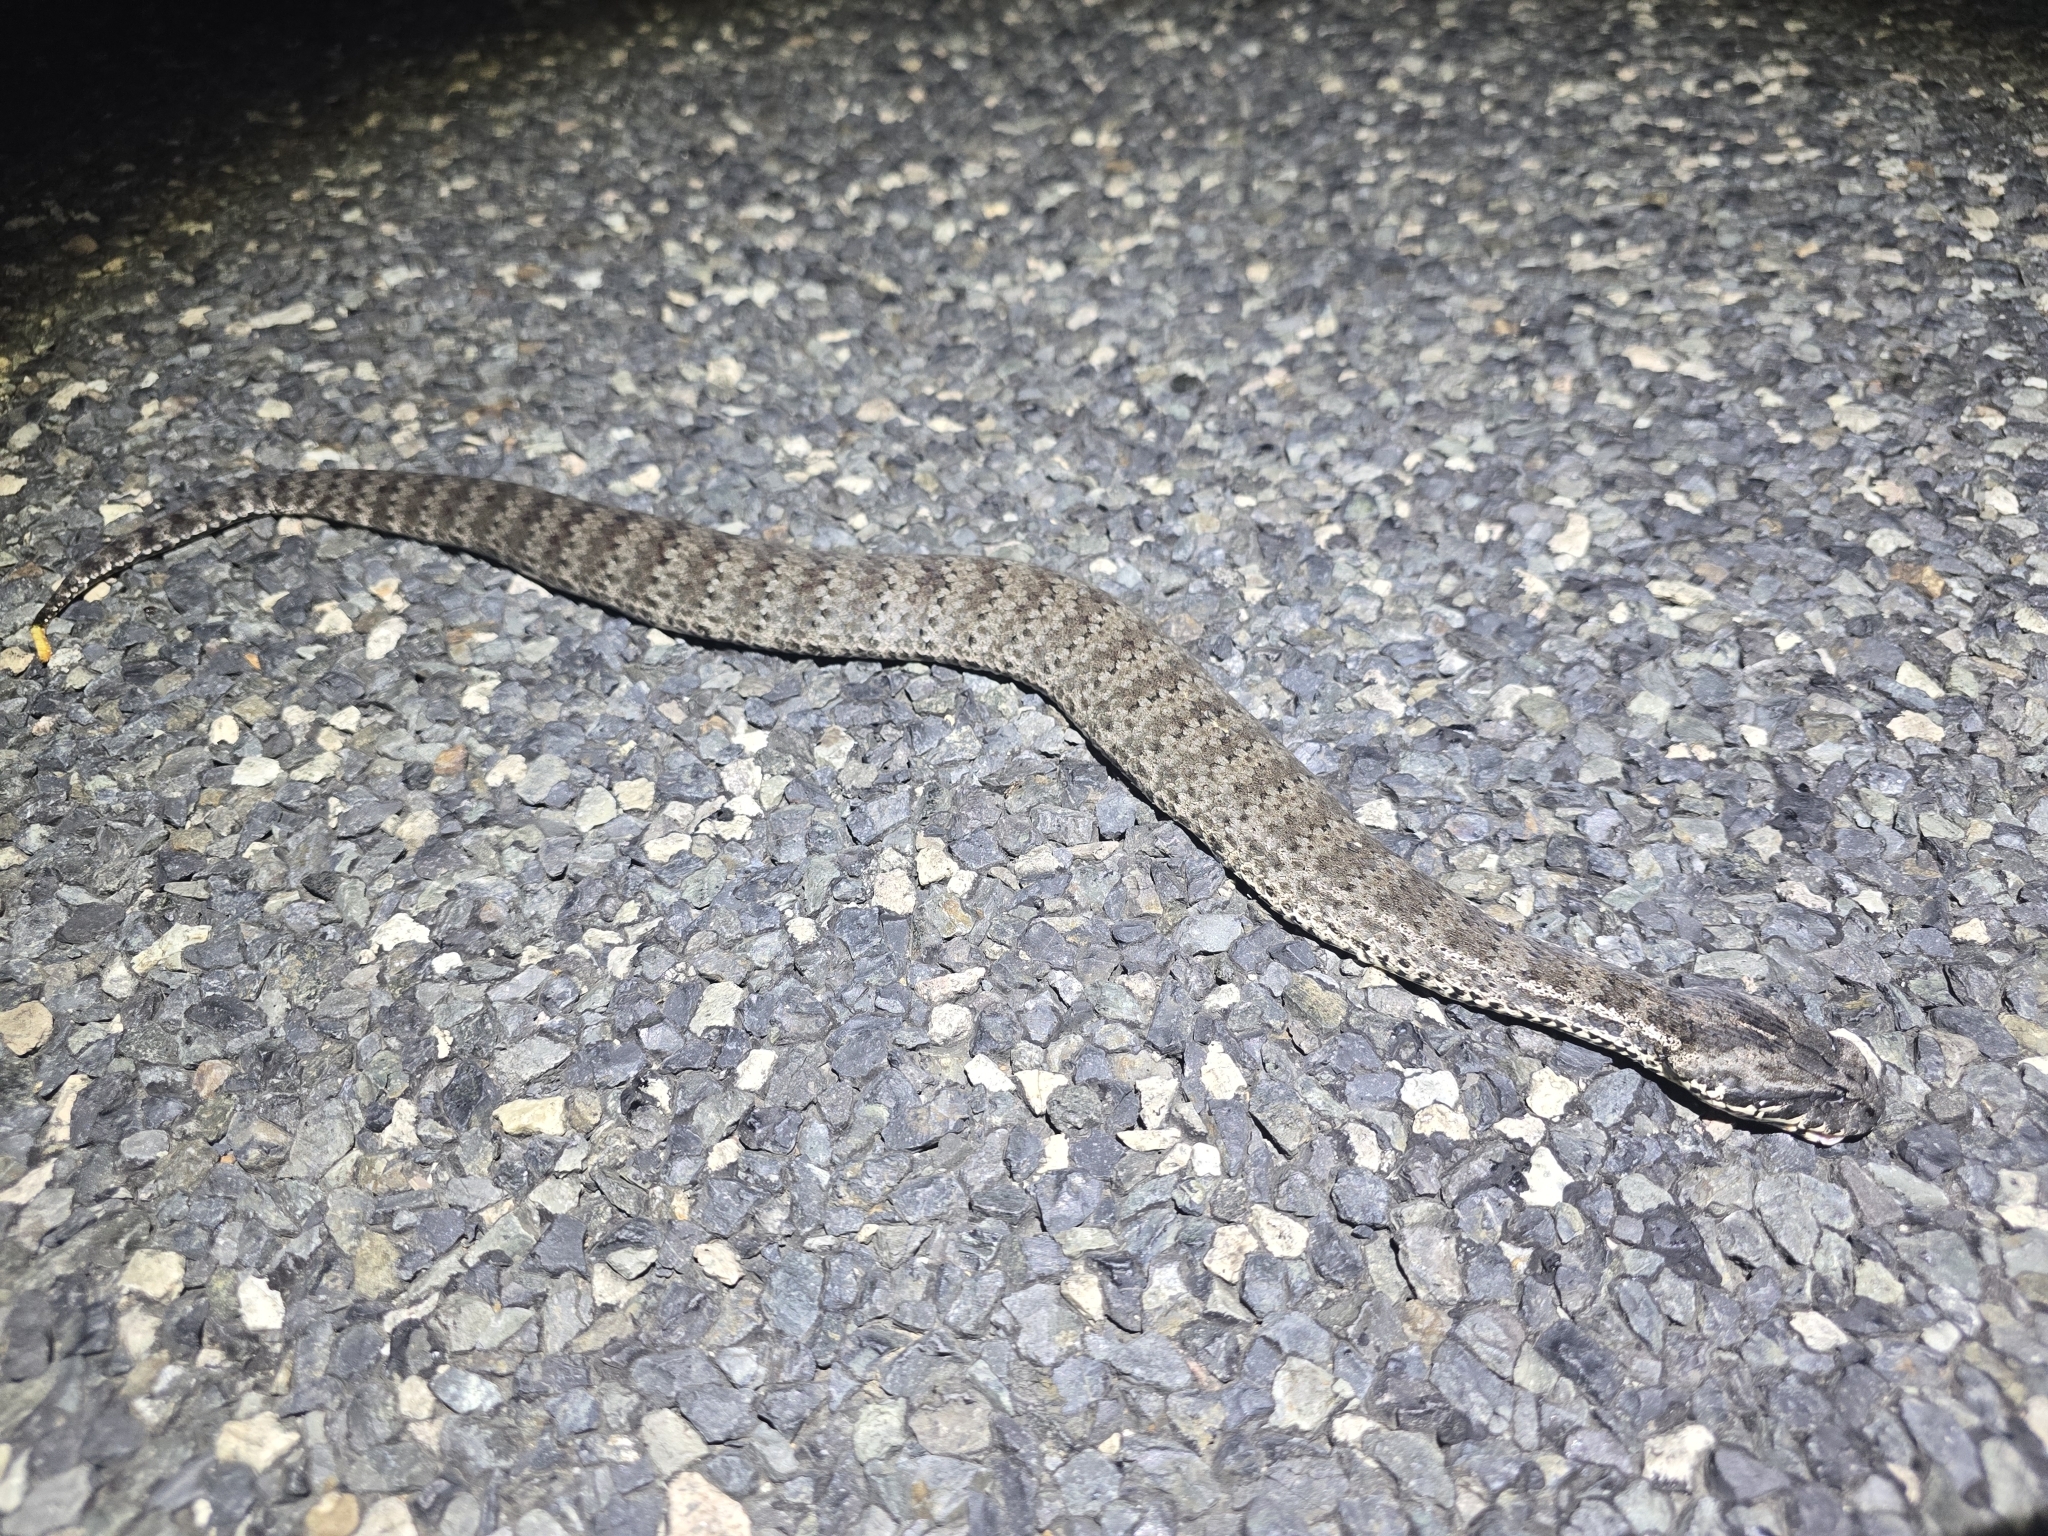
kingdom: Animalia
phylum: Chordata
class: Squamata
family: Elapidae
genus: Acanthophis
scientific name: Acanthophis antarcticus
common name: Common death adder
